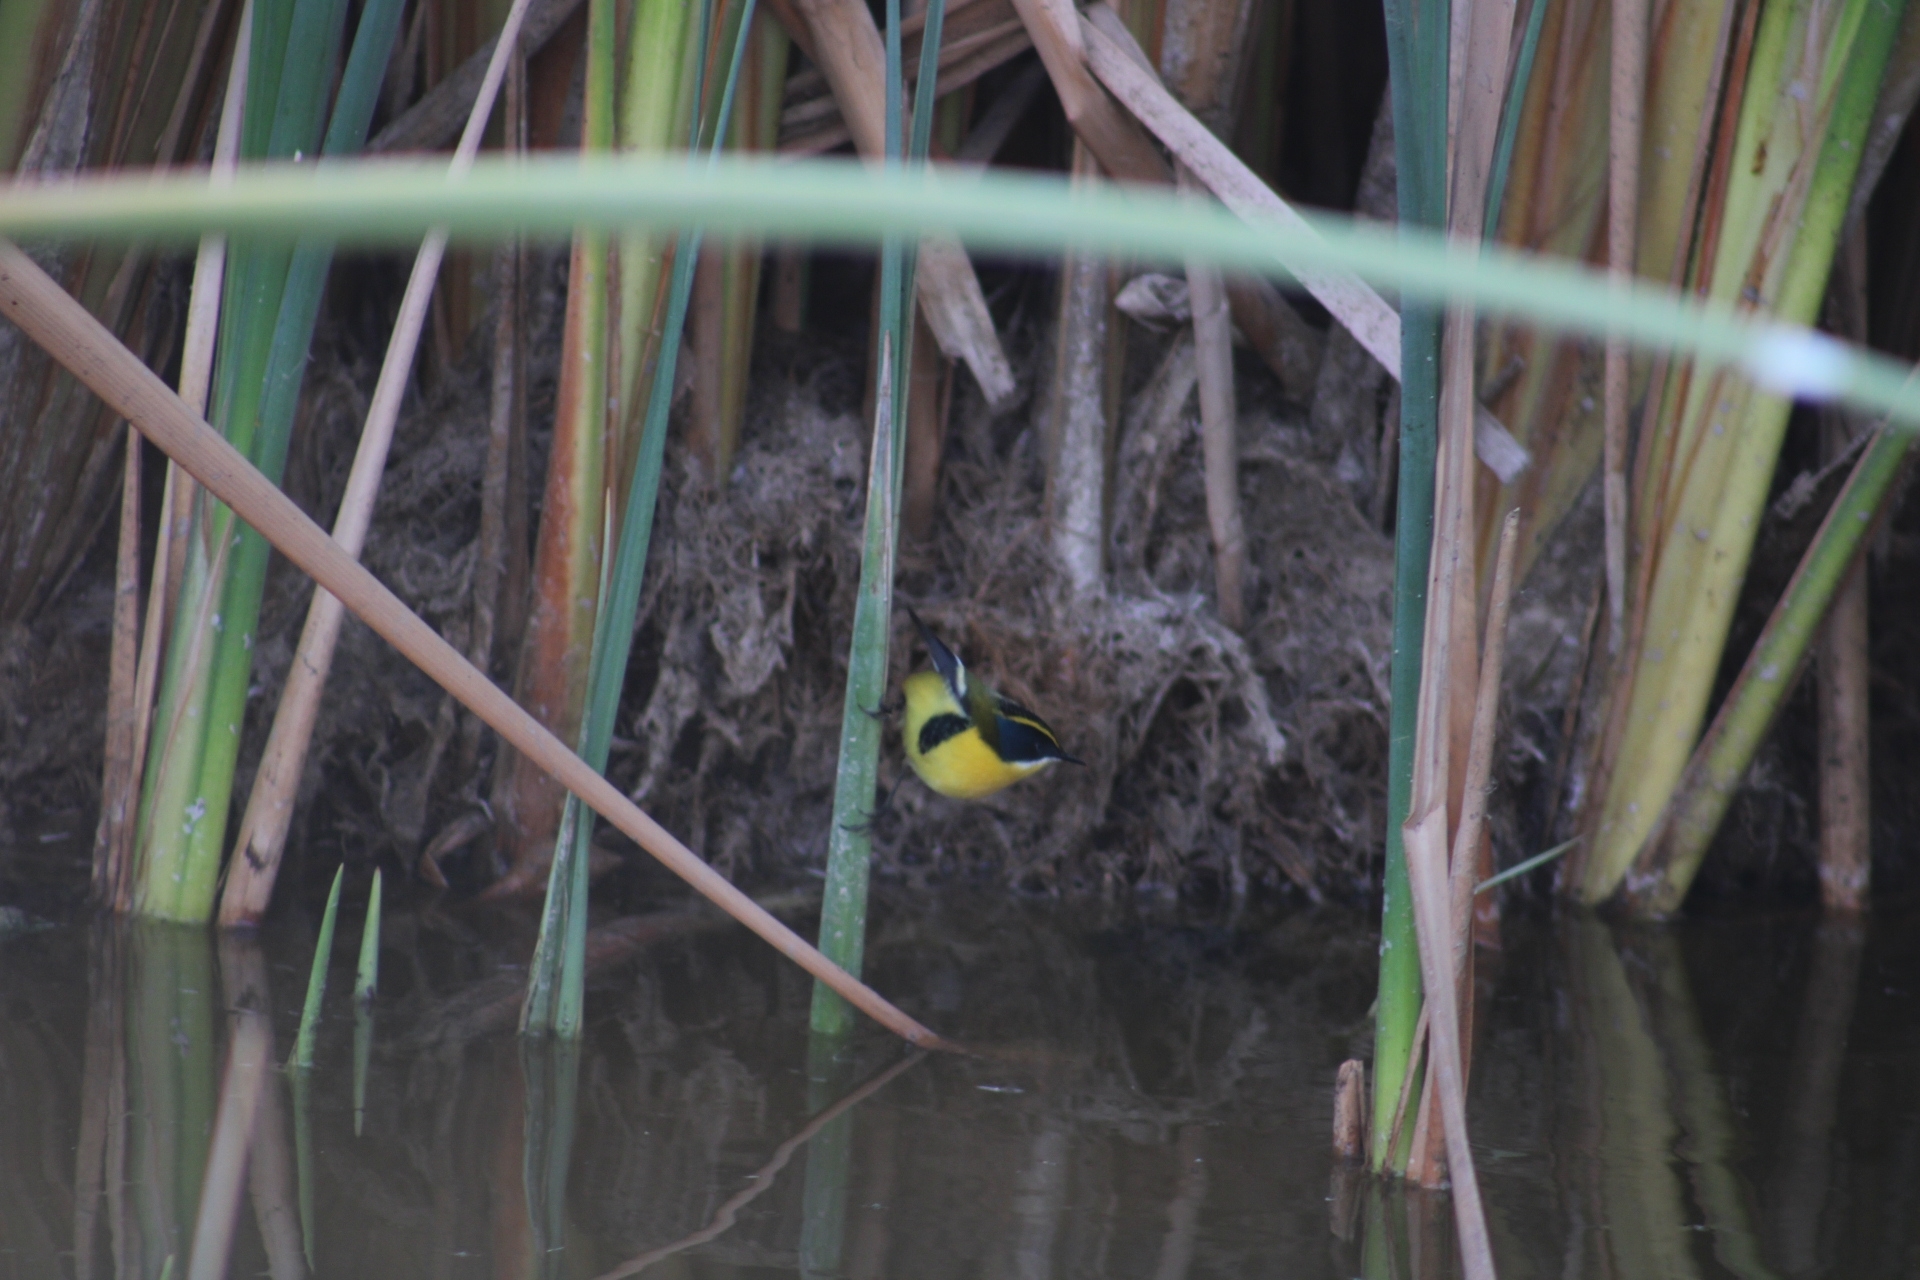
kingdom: Animalia
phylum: Chordata
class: Aves
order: Passeriformes
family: Tyrannidae
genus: Tachuris
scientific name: Tachuris rubrigastra
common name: Many-colored rush tyrant
